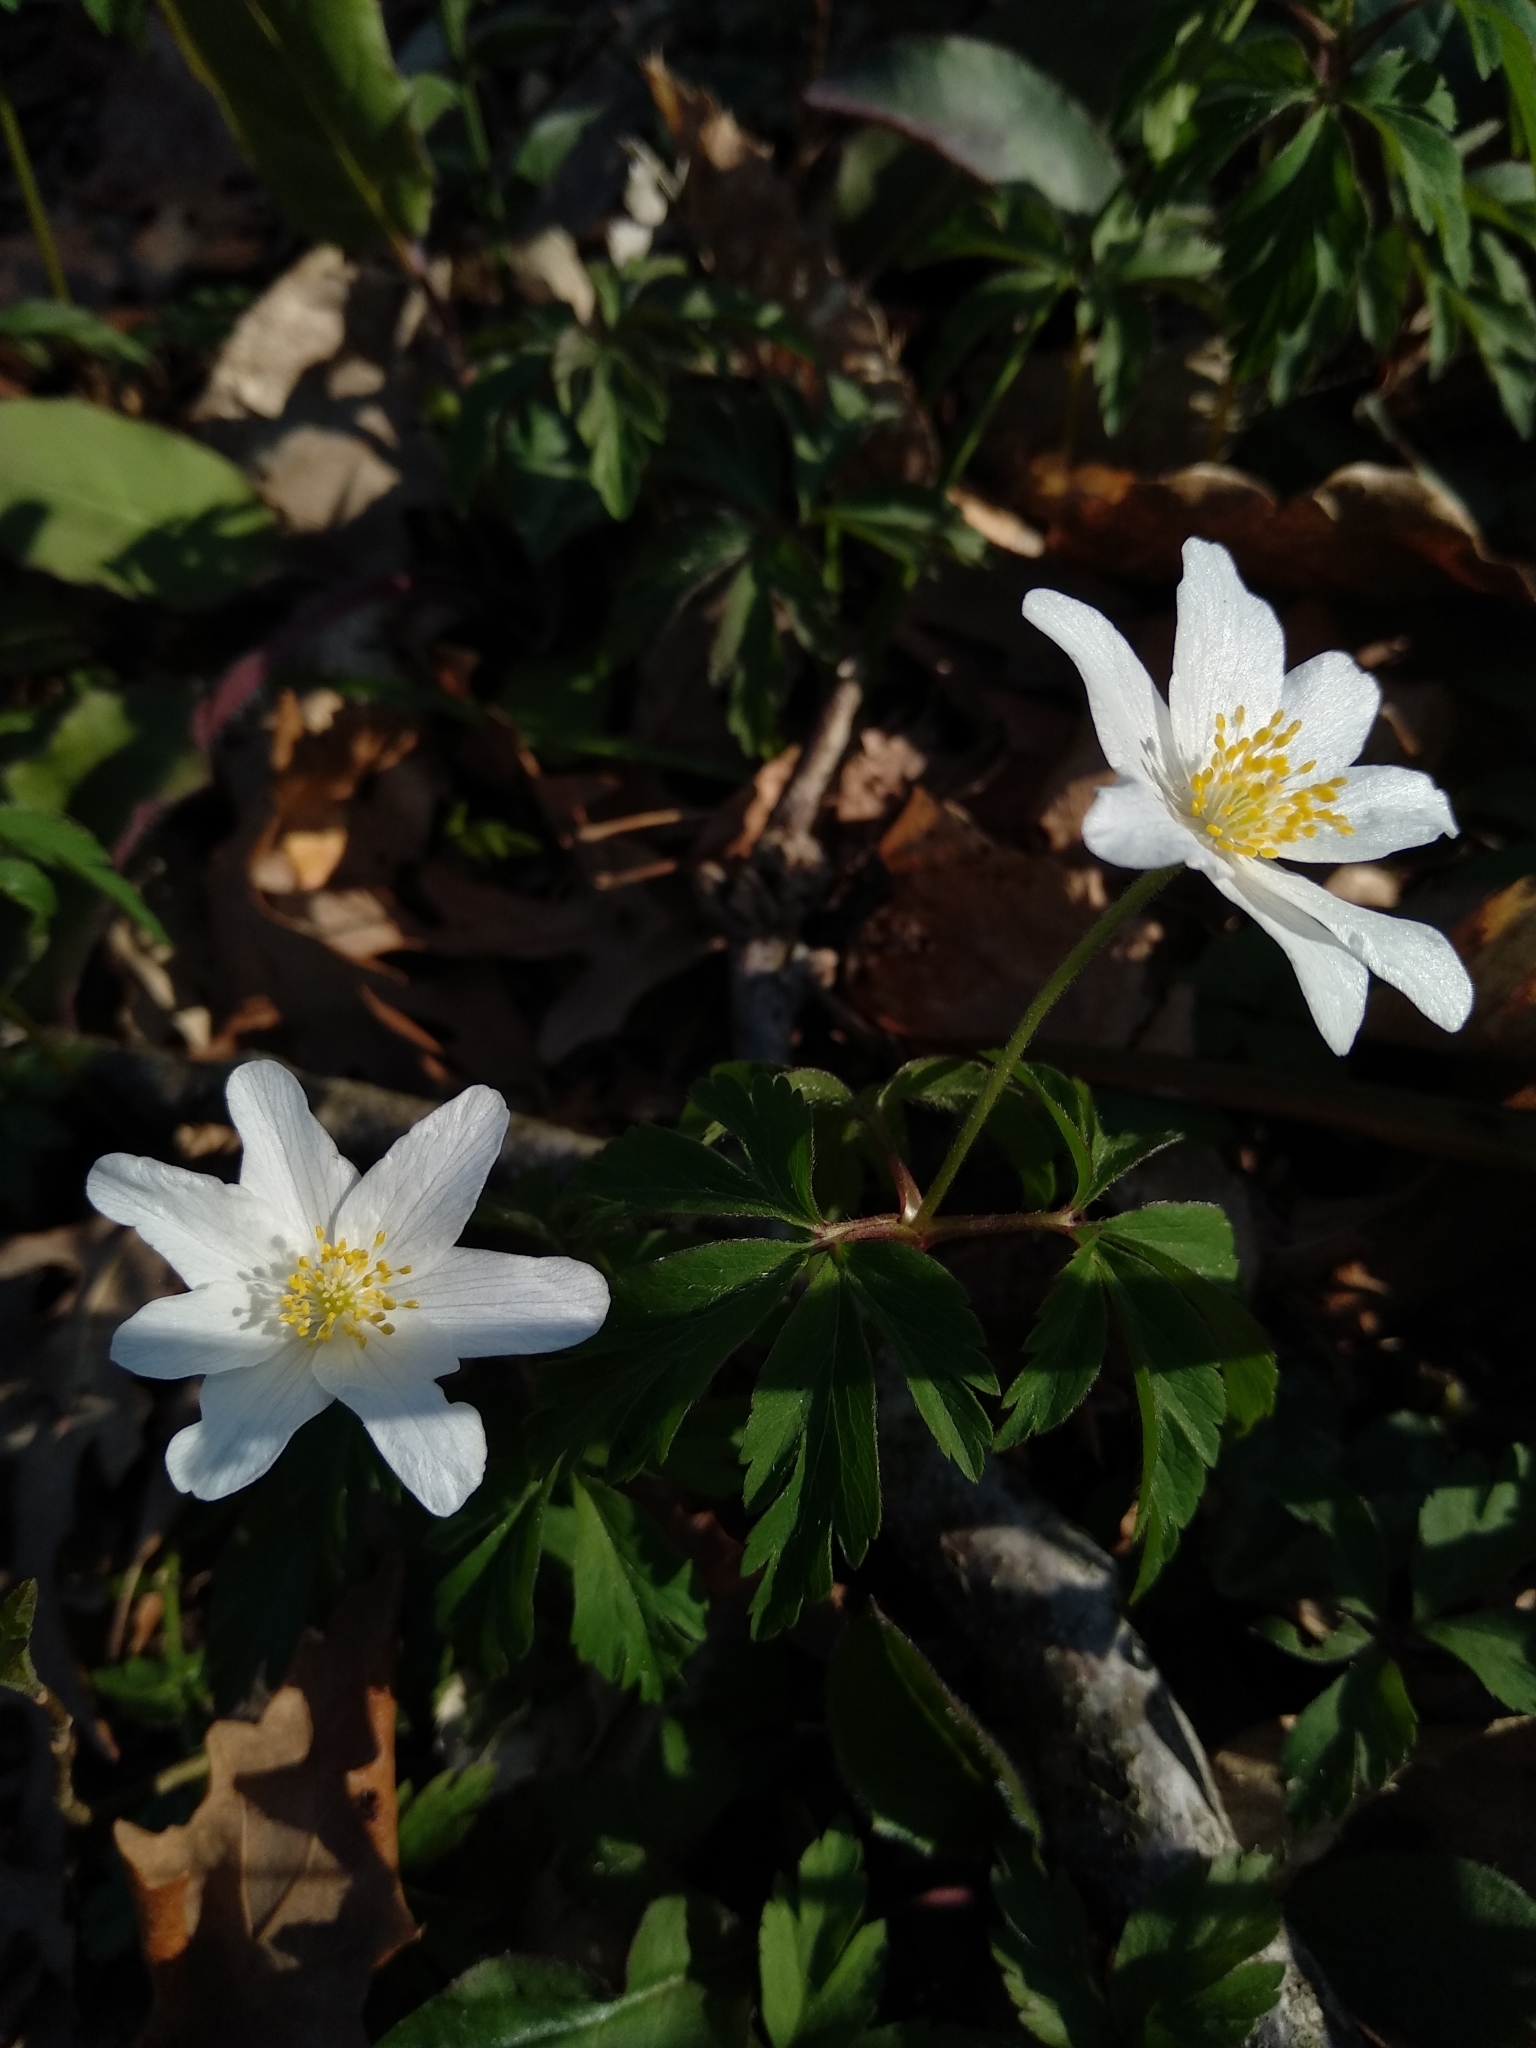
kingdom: Plantae
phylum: Tracheophyta
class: Magnoliopsida
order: Ranunculales
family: Ranunculaceae
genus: Anemone
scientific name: Anemone nemorosa
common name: Wood anemone
